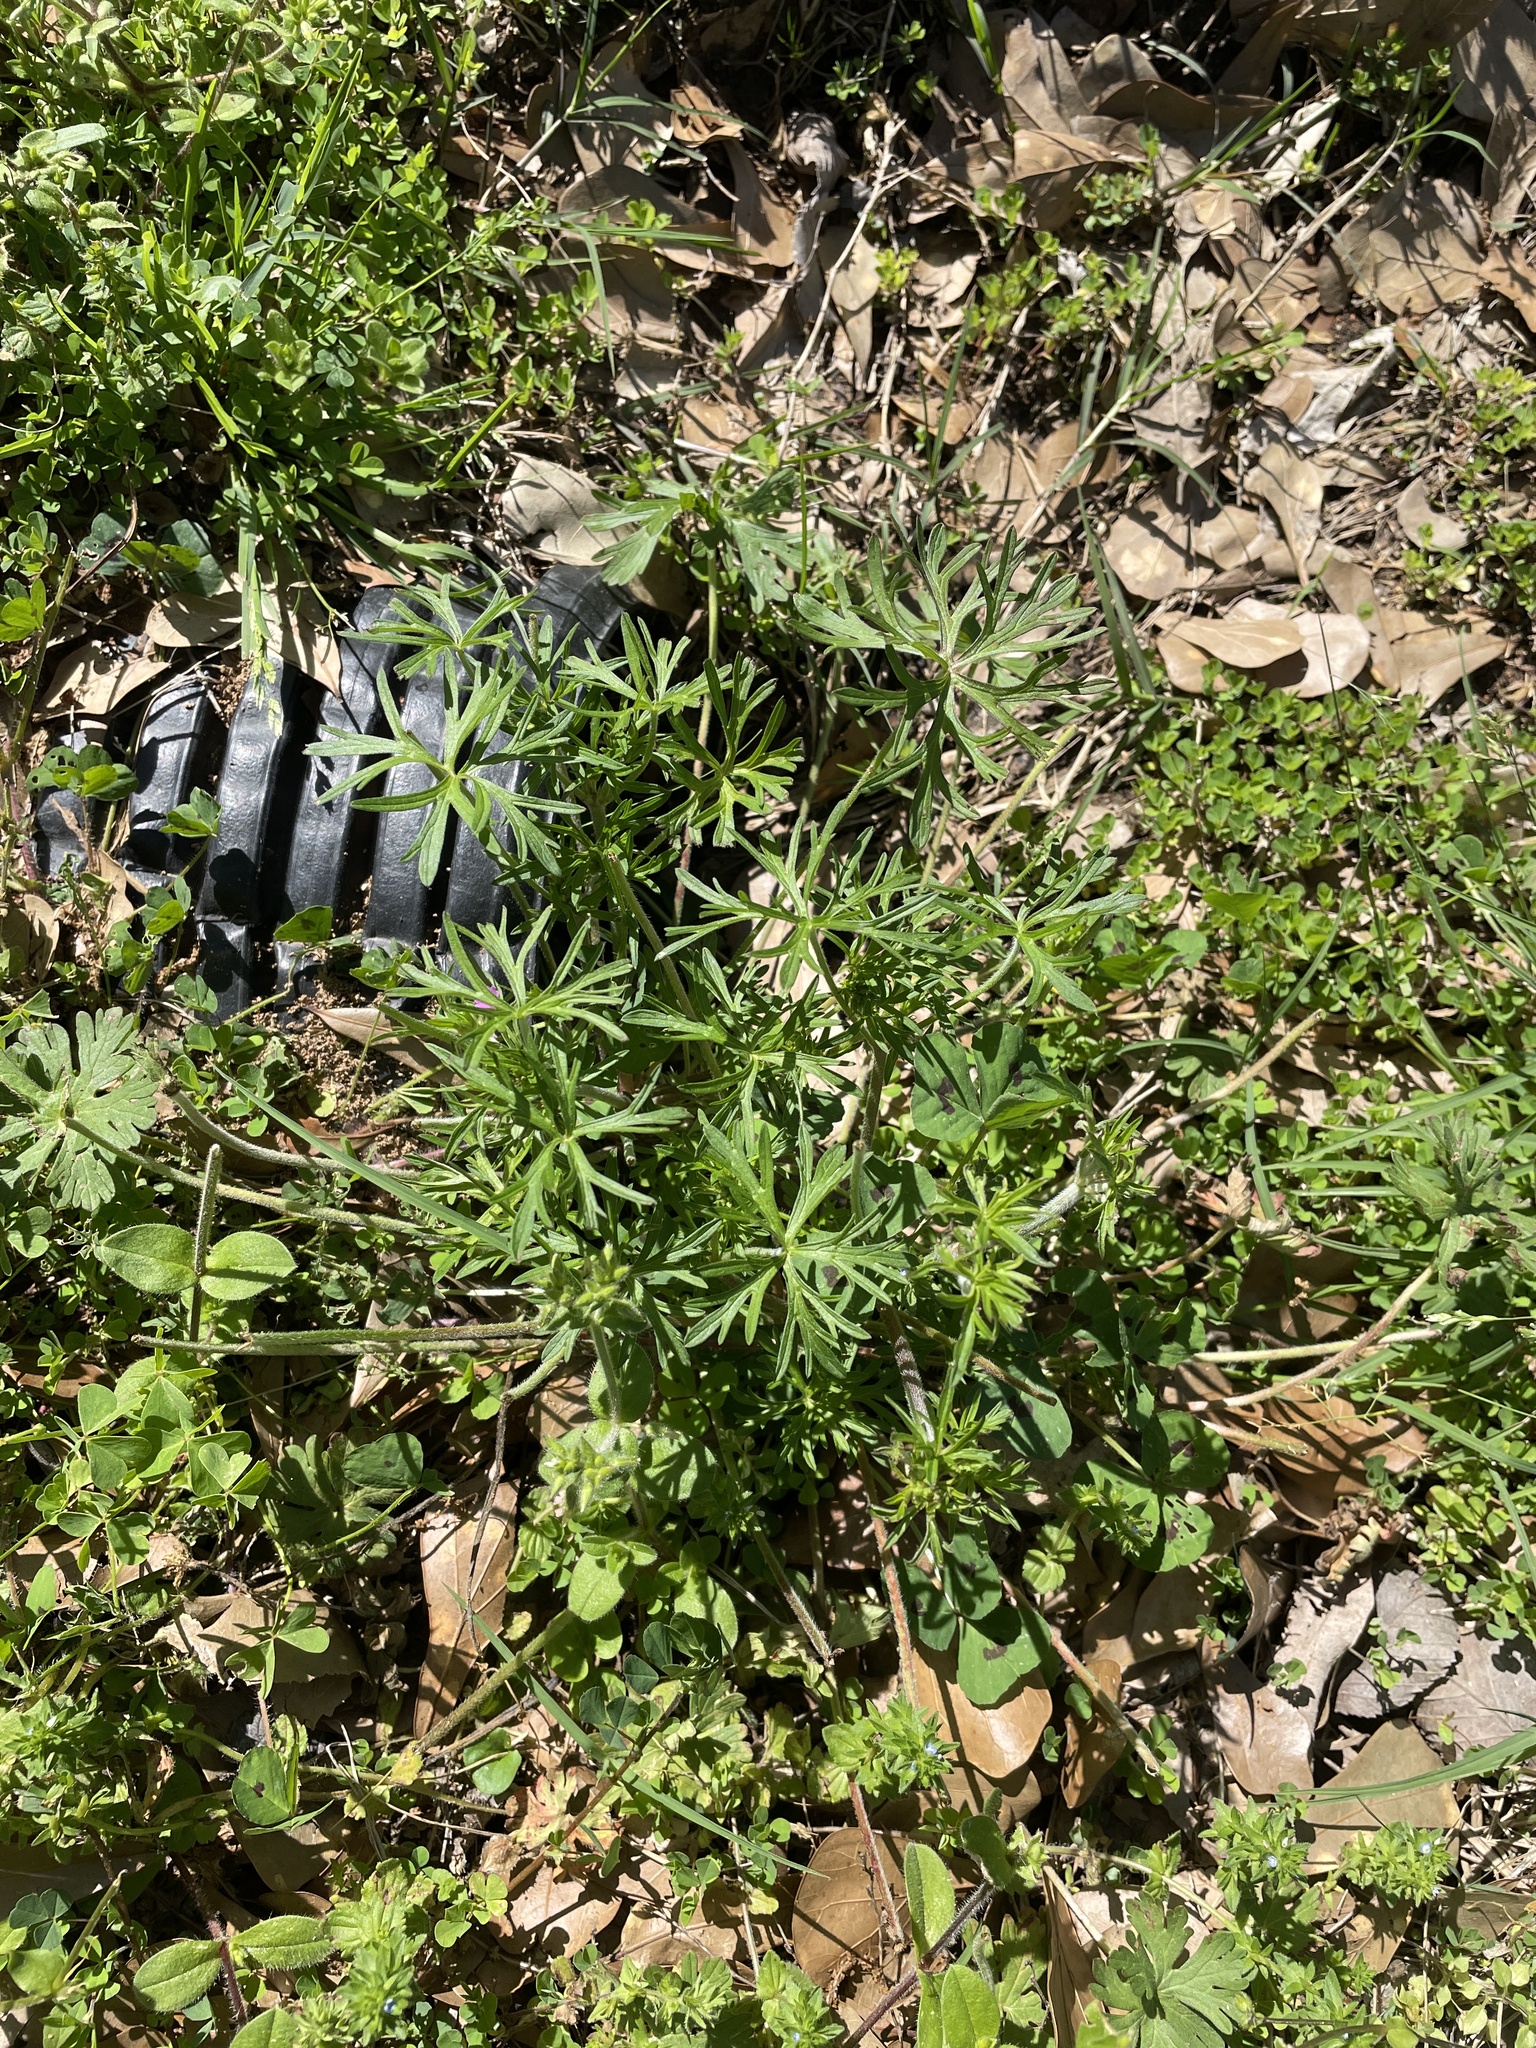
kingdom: Plantae
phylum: Tracheophyta
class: Magnoliopsida
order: Geraniales
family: Geraniaceae
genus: Geranium
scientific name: Geranium dissectum
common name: Cut-leaved crane's-bill
